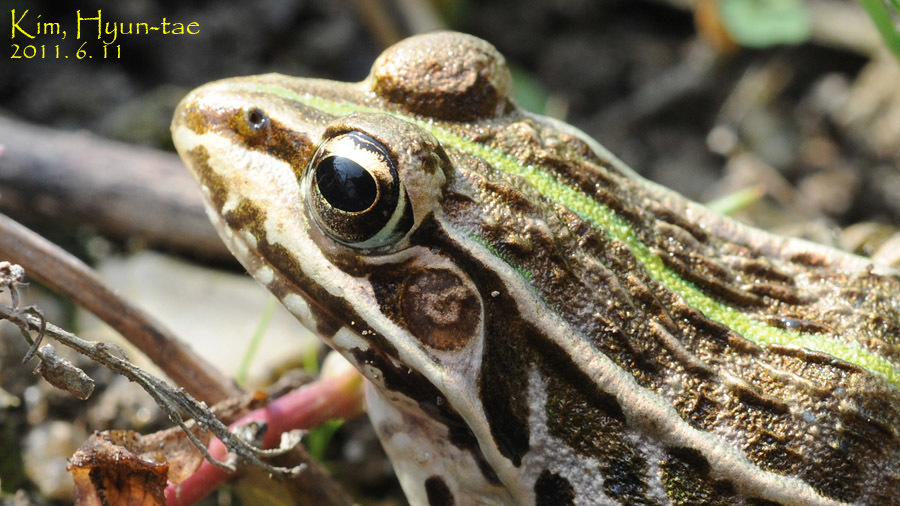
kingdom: Animalia
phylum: Chordata
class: Amphibia
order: Anura
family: Ranidae
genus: Pelophylax
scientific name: Pelophylax nigromaculatus
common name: Black-spotted pond frog
